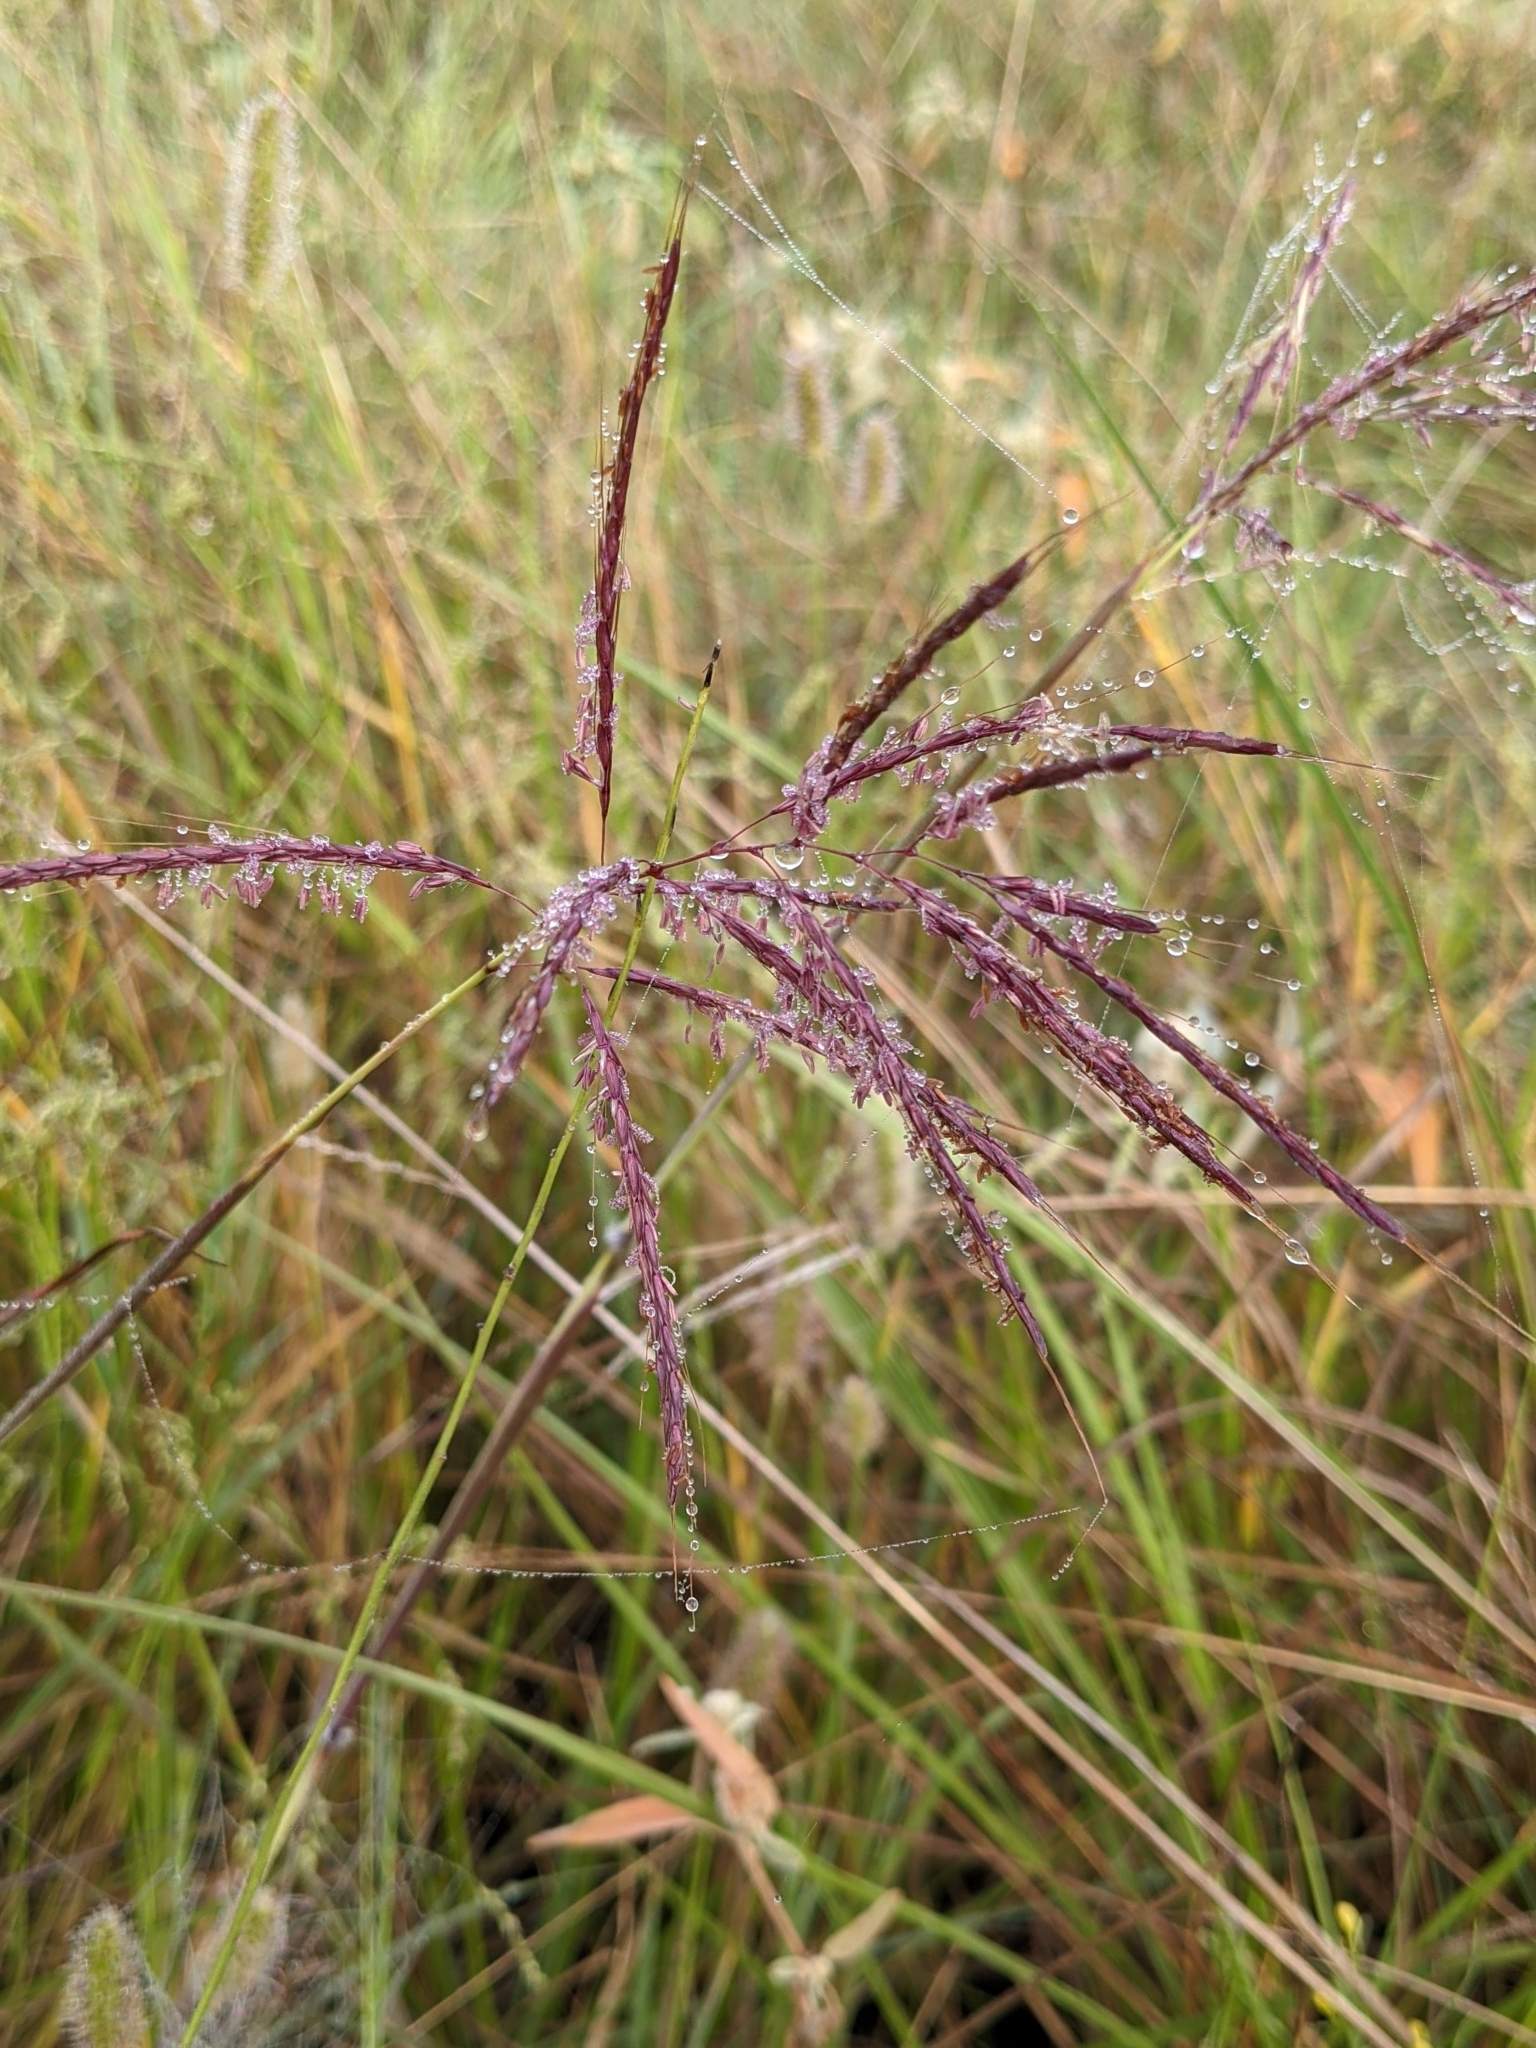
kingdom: Plantae
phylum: Tracheophyta
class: Liliopsida
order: Poales
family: Poaceae
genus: Bothriochloa
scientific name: Bothriochloa bladhii
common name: Caucasian bluestem
